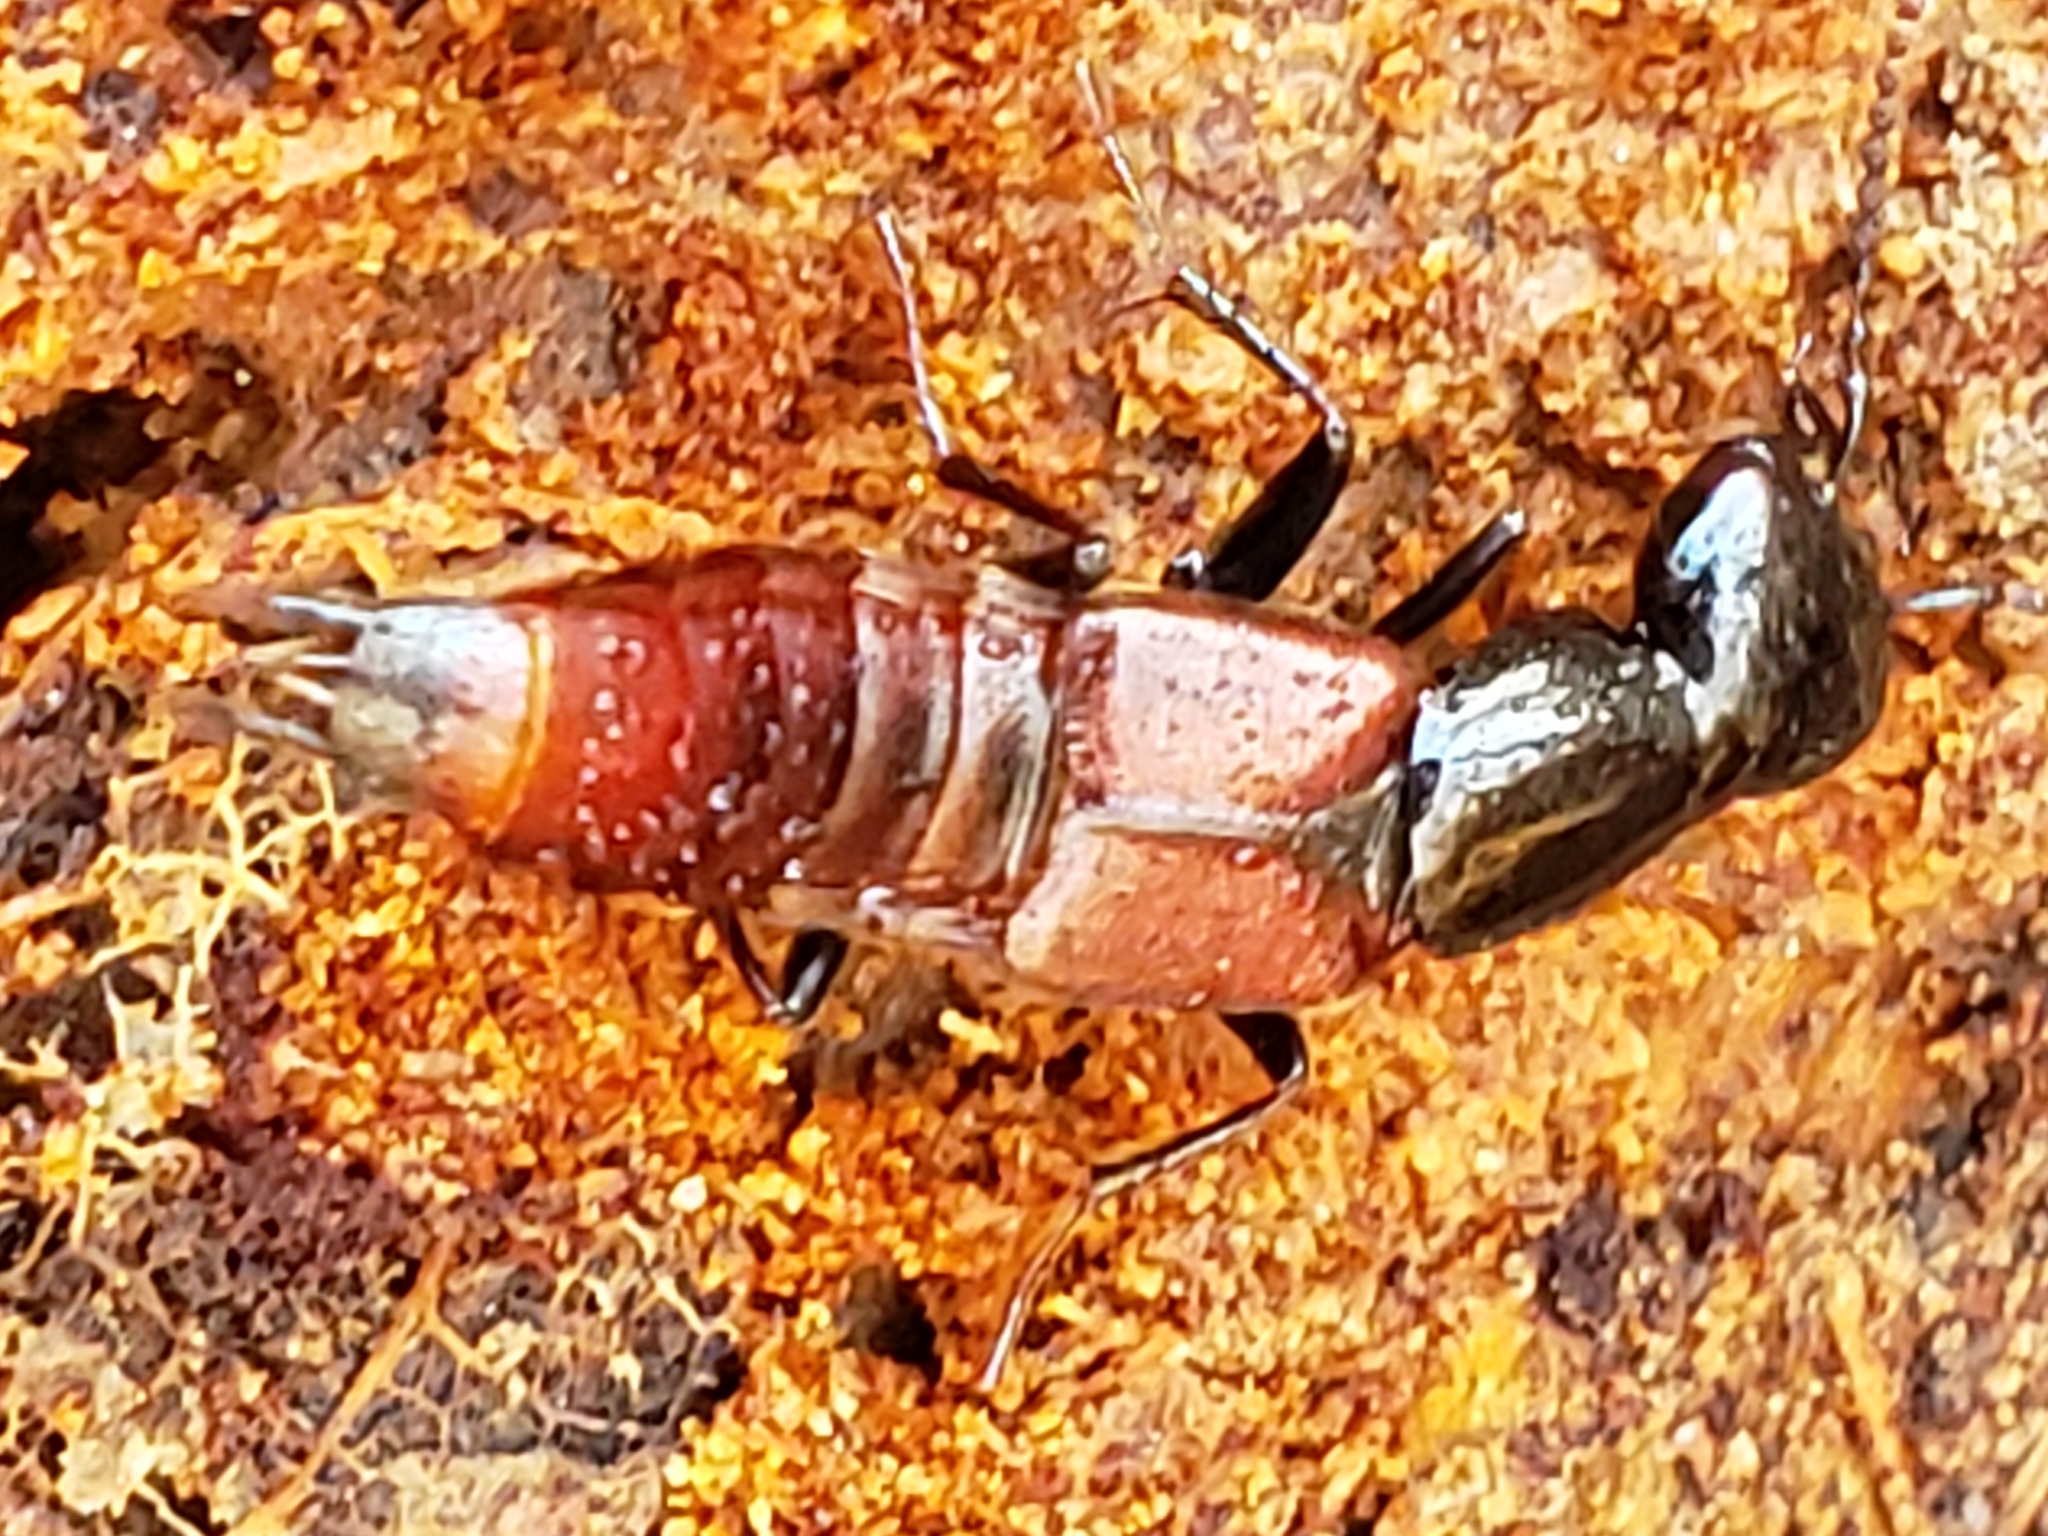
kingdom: Animalia
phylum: Arthropoda
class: Insecta
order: Coleoptera
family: Staphylinidae
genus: Hesperus
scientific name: Hesperus baltimorensis
